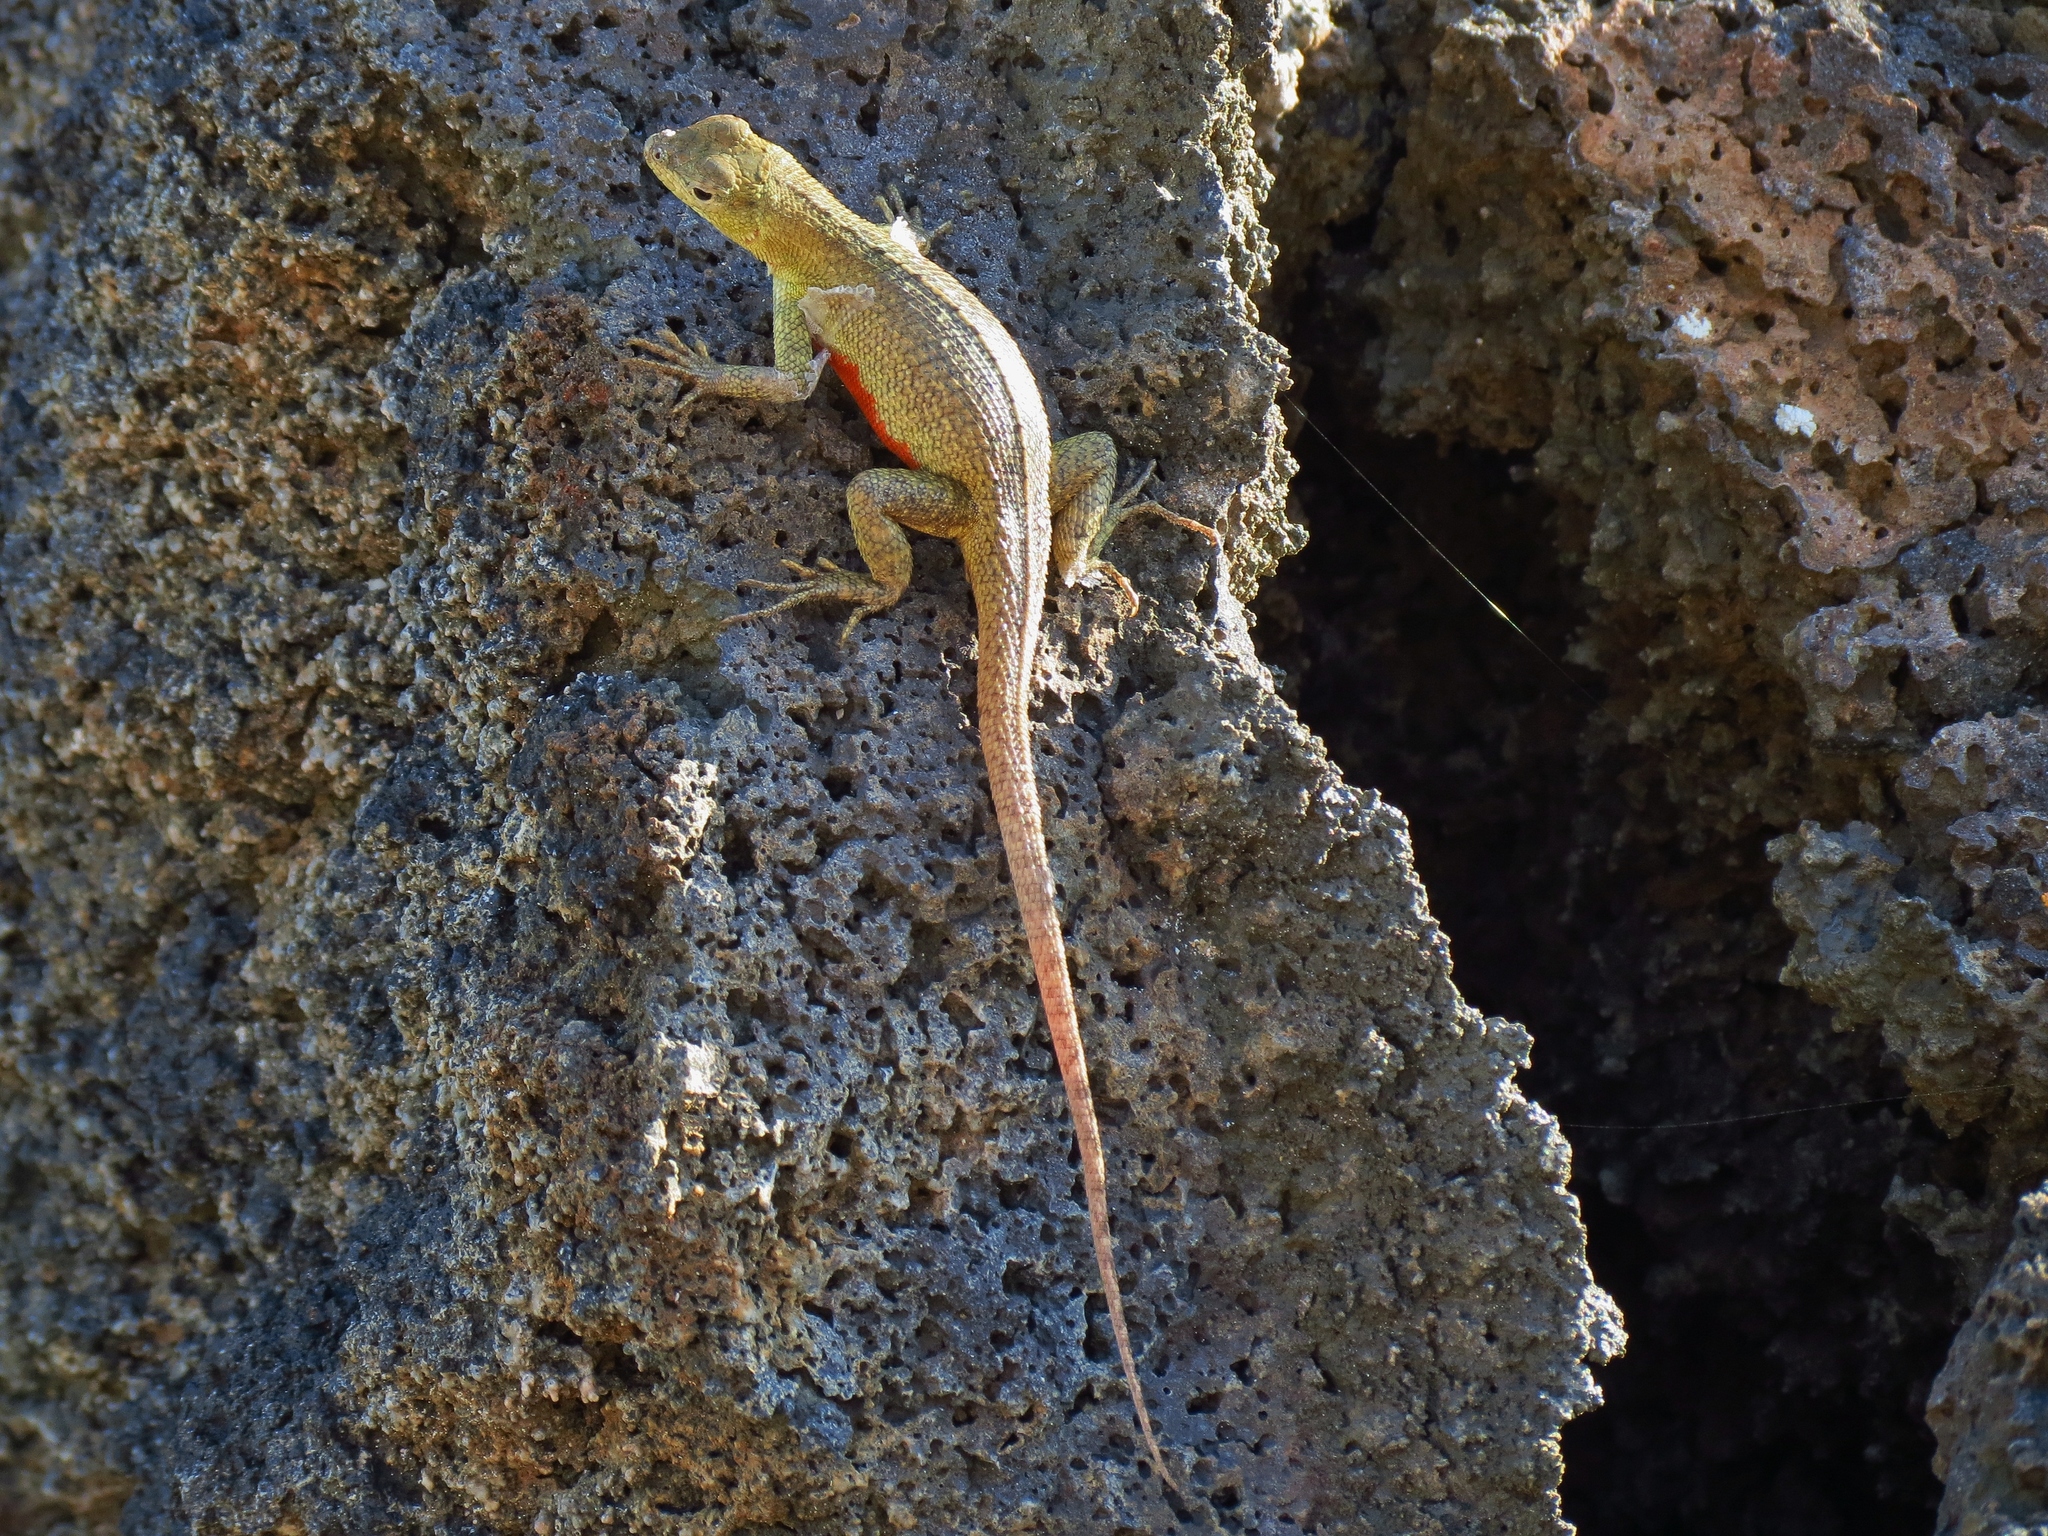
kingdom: Animalia
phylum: Chordata
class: Squamata
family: Tropiduridae
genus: Microlophus
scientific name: Microlophus bivittatus
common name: San cristobal lava lizard
